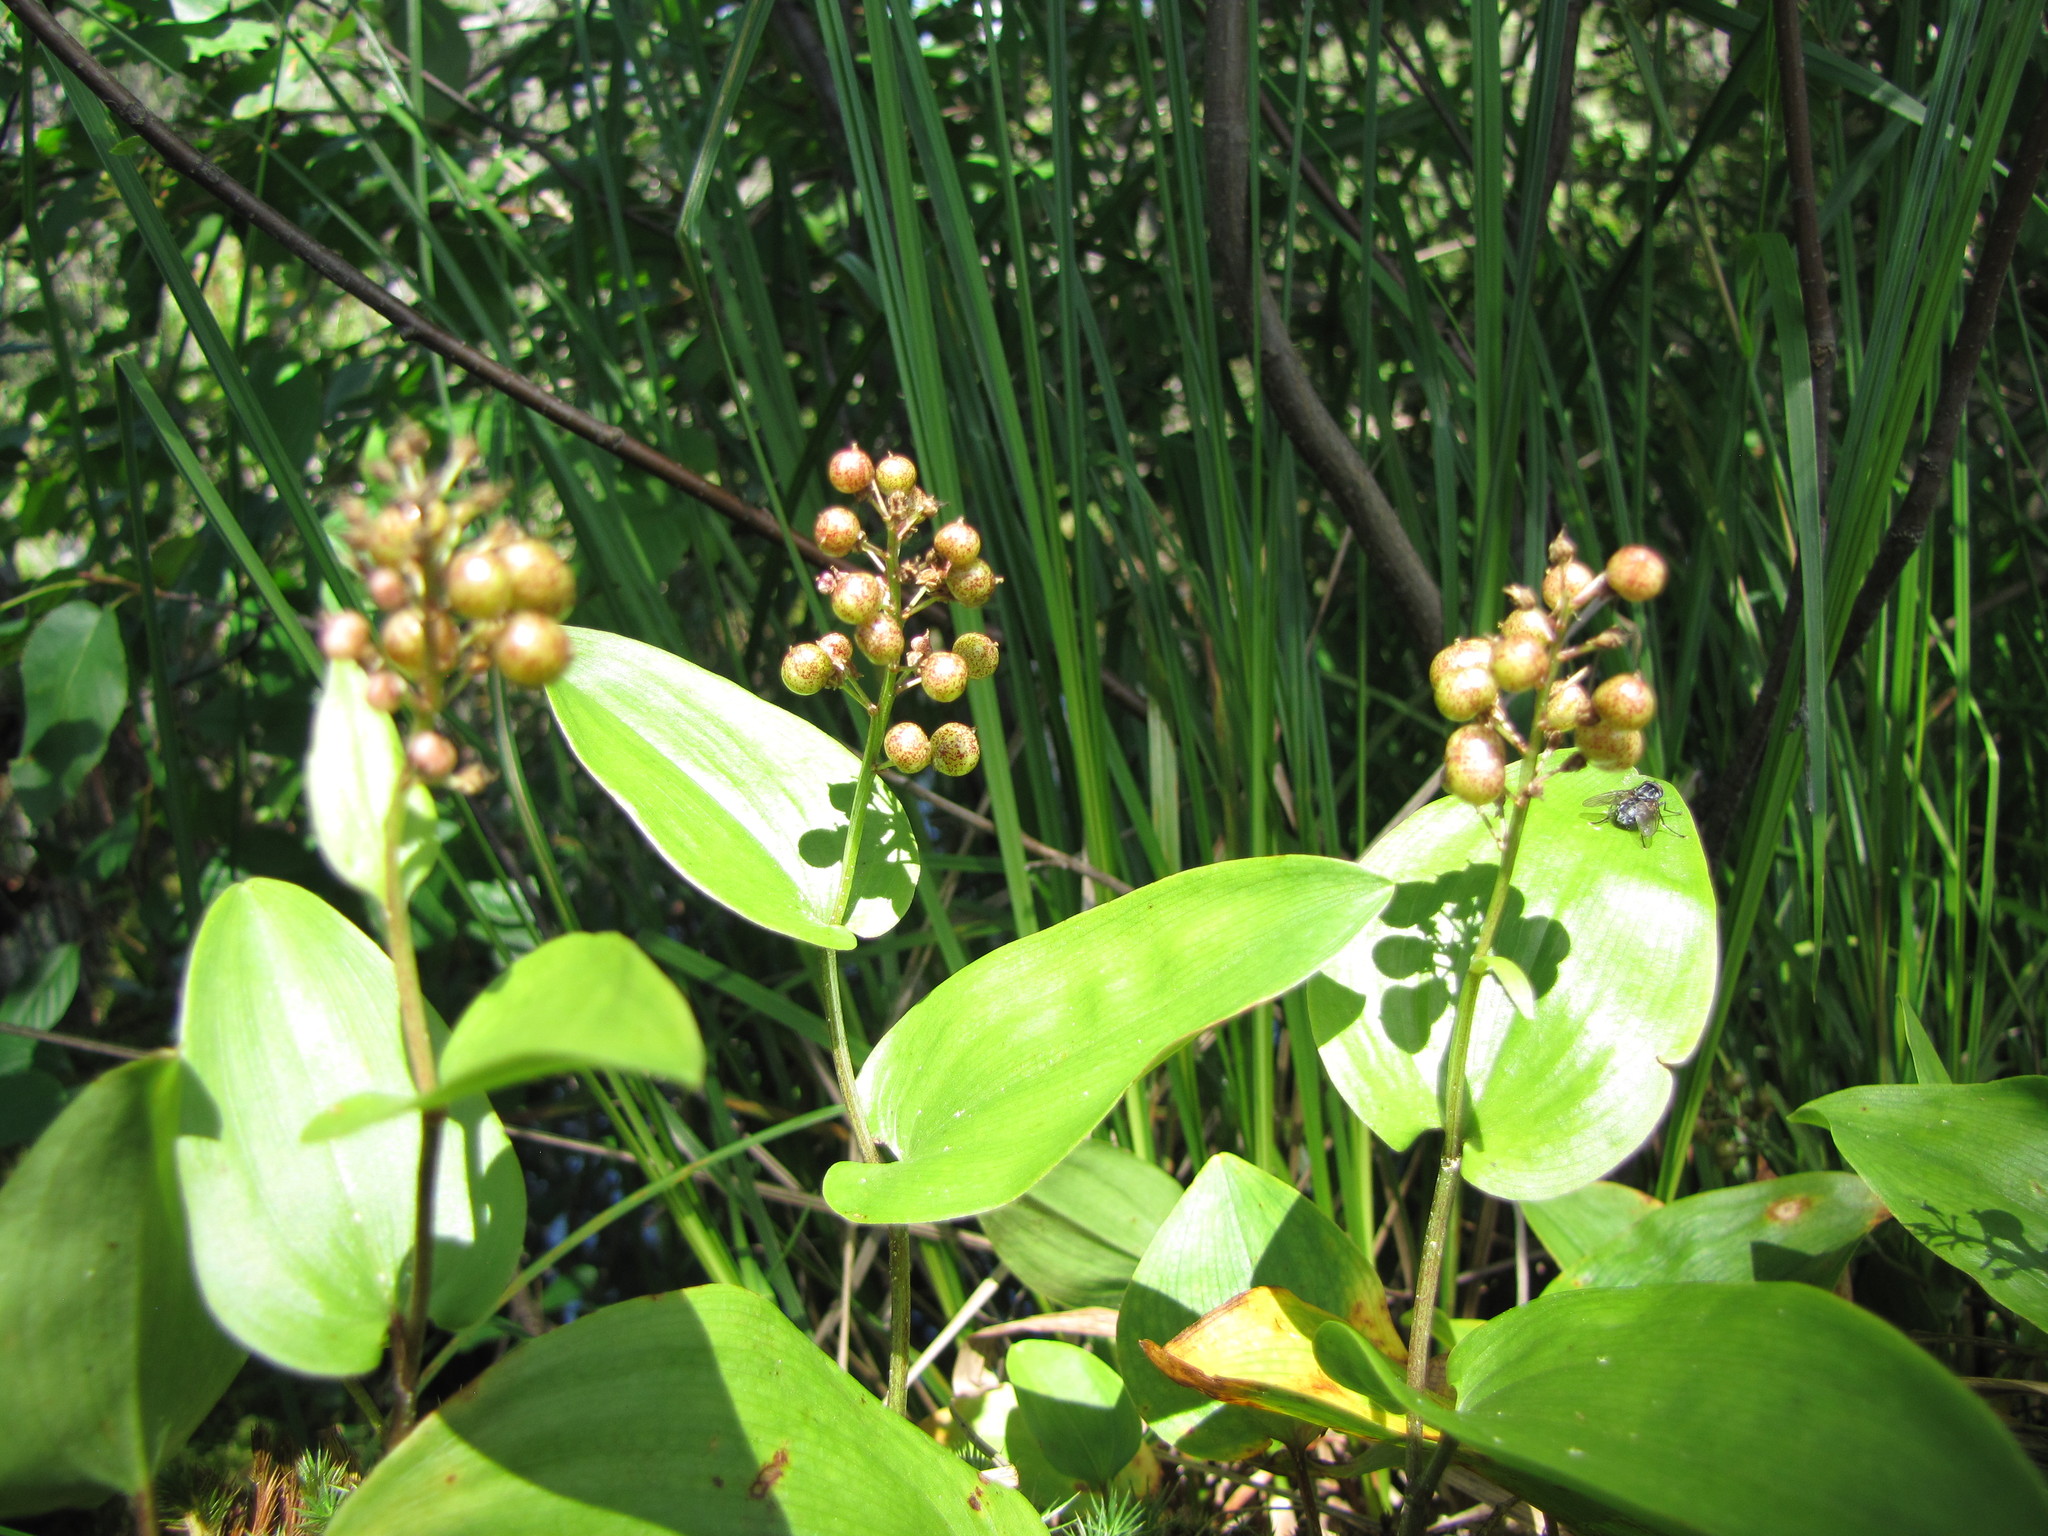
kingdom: Plantae
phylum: Tracheophyta
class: Liliopsida
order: Asparagales
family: Asparagaceae
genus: Maianthemum
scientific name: Maianthemum canadense
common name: False lily-of-the-valley
